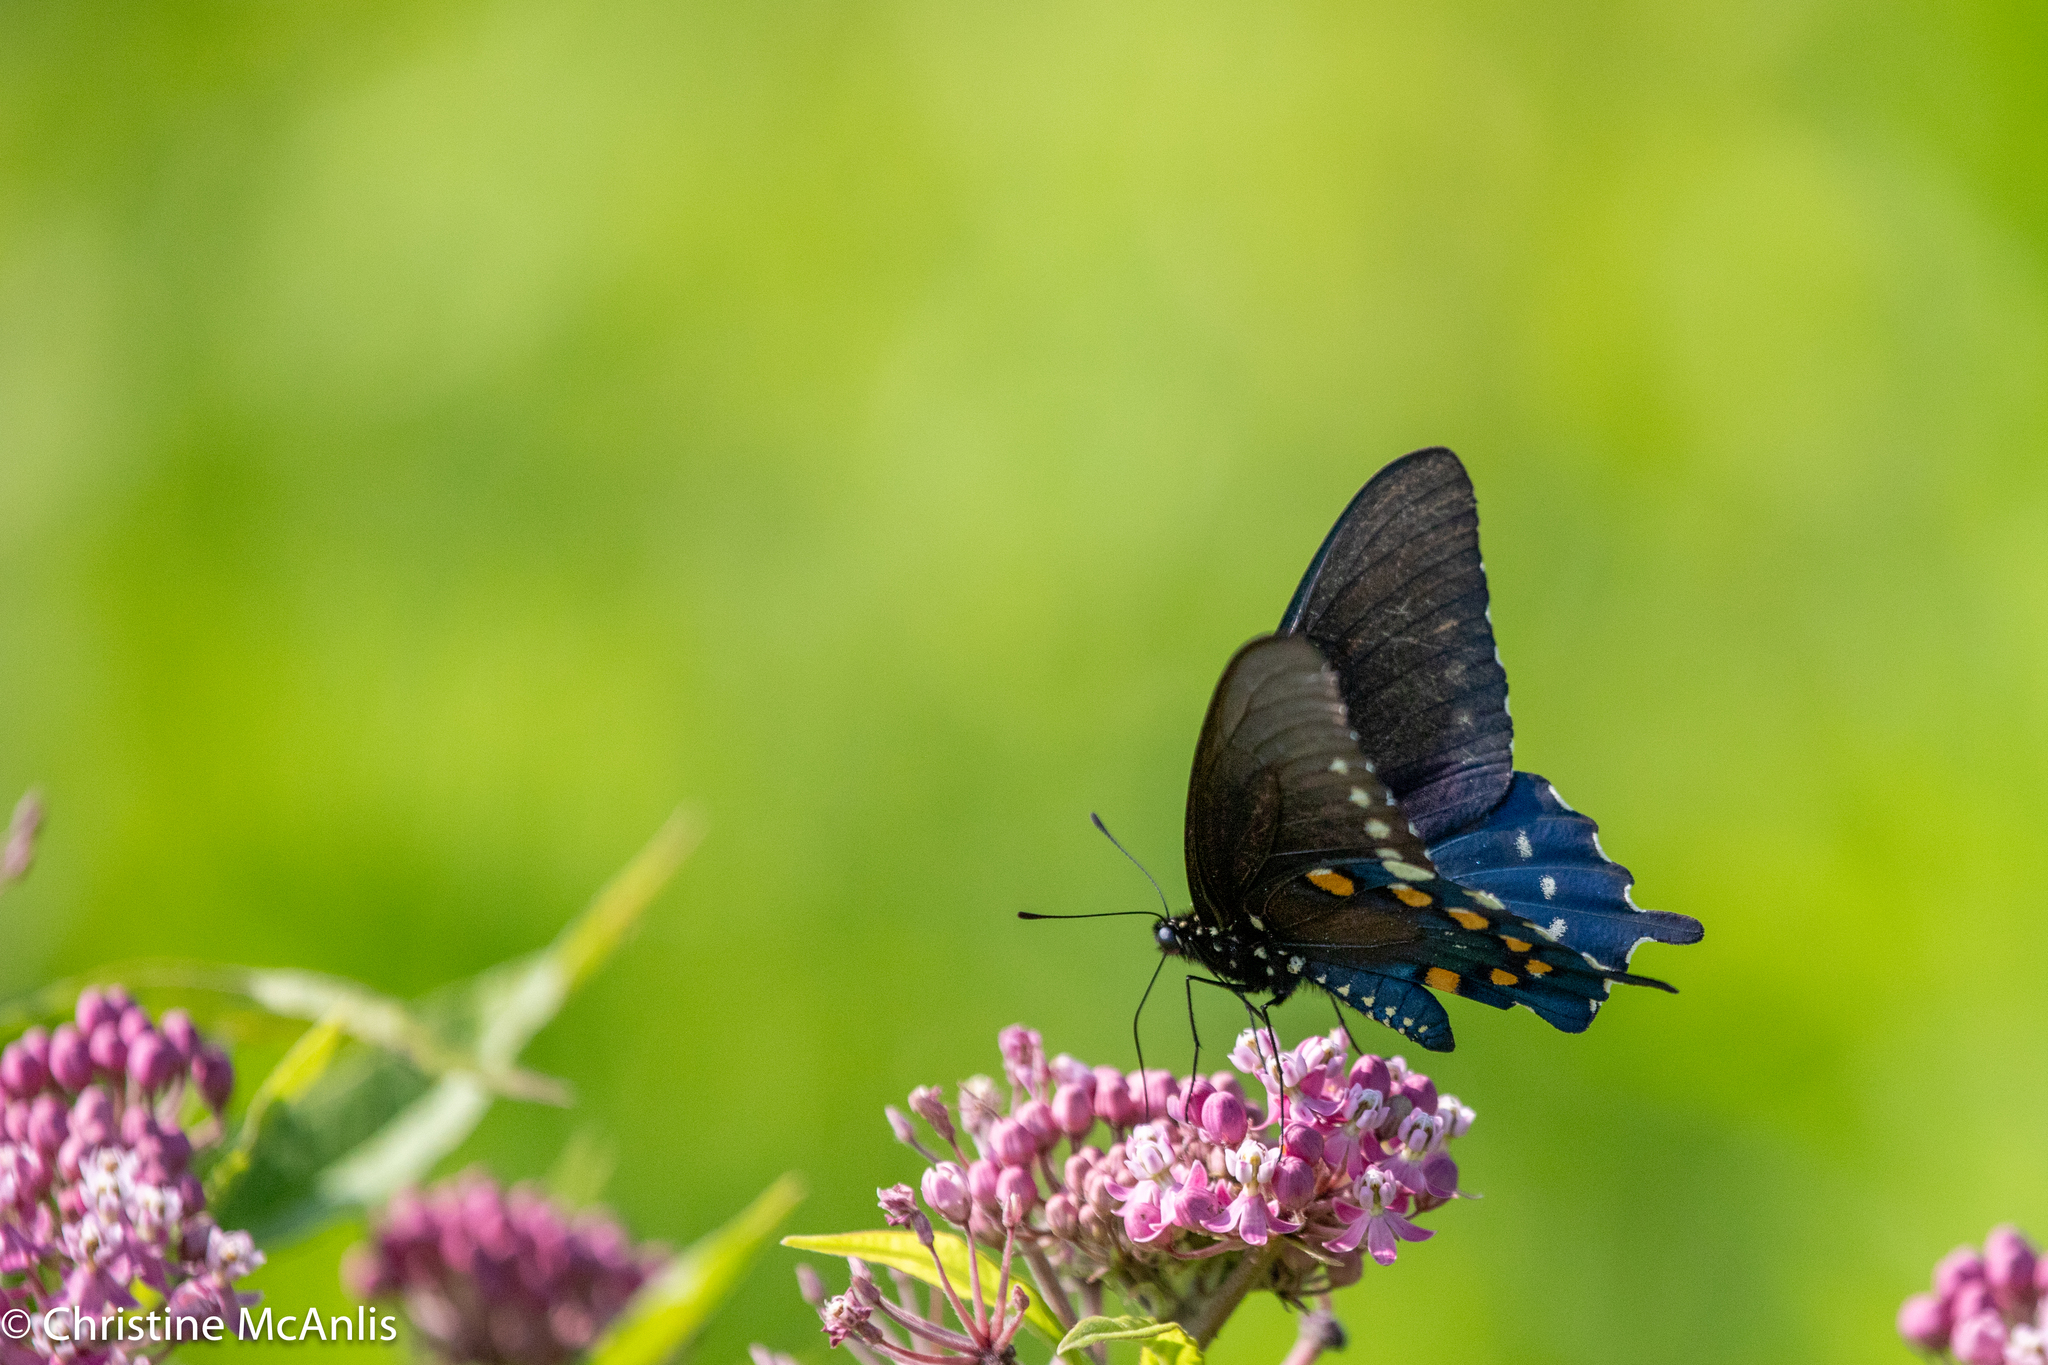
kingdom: Animalia
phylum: Arthropoda
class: Insecta
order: Lepidoptera
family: Papilionidae
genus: Battus
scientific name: Battus philenor
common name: Pipevine swallowtail
